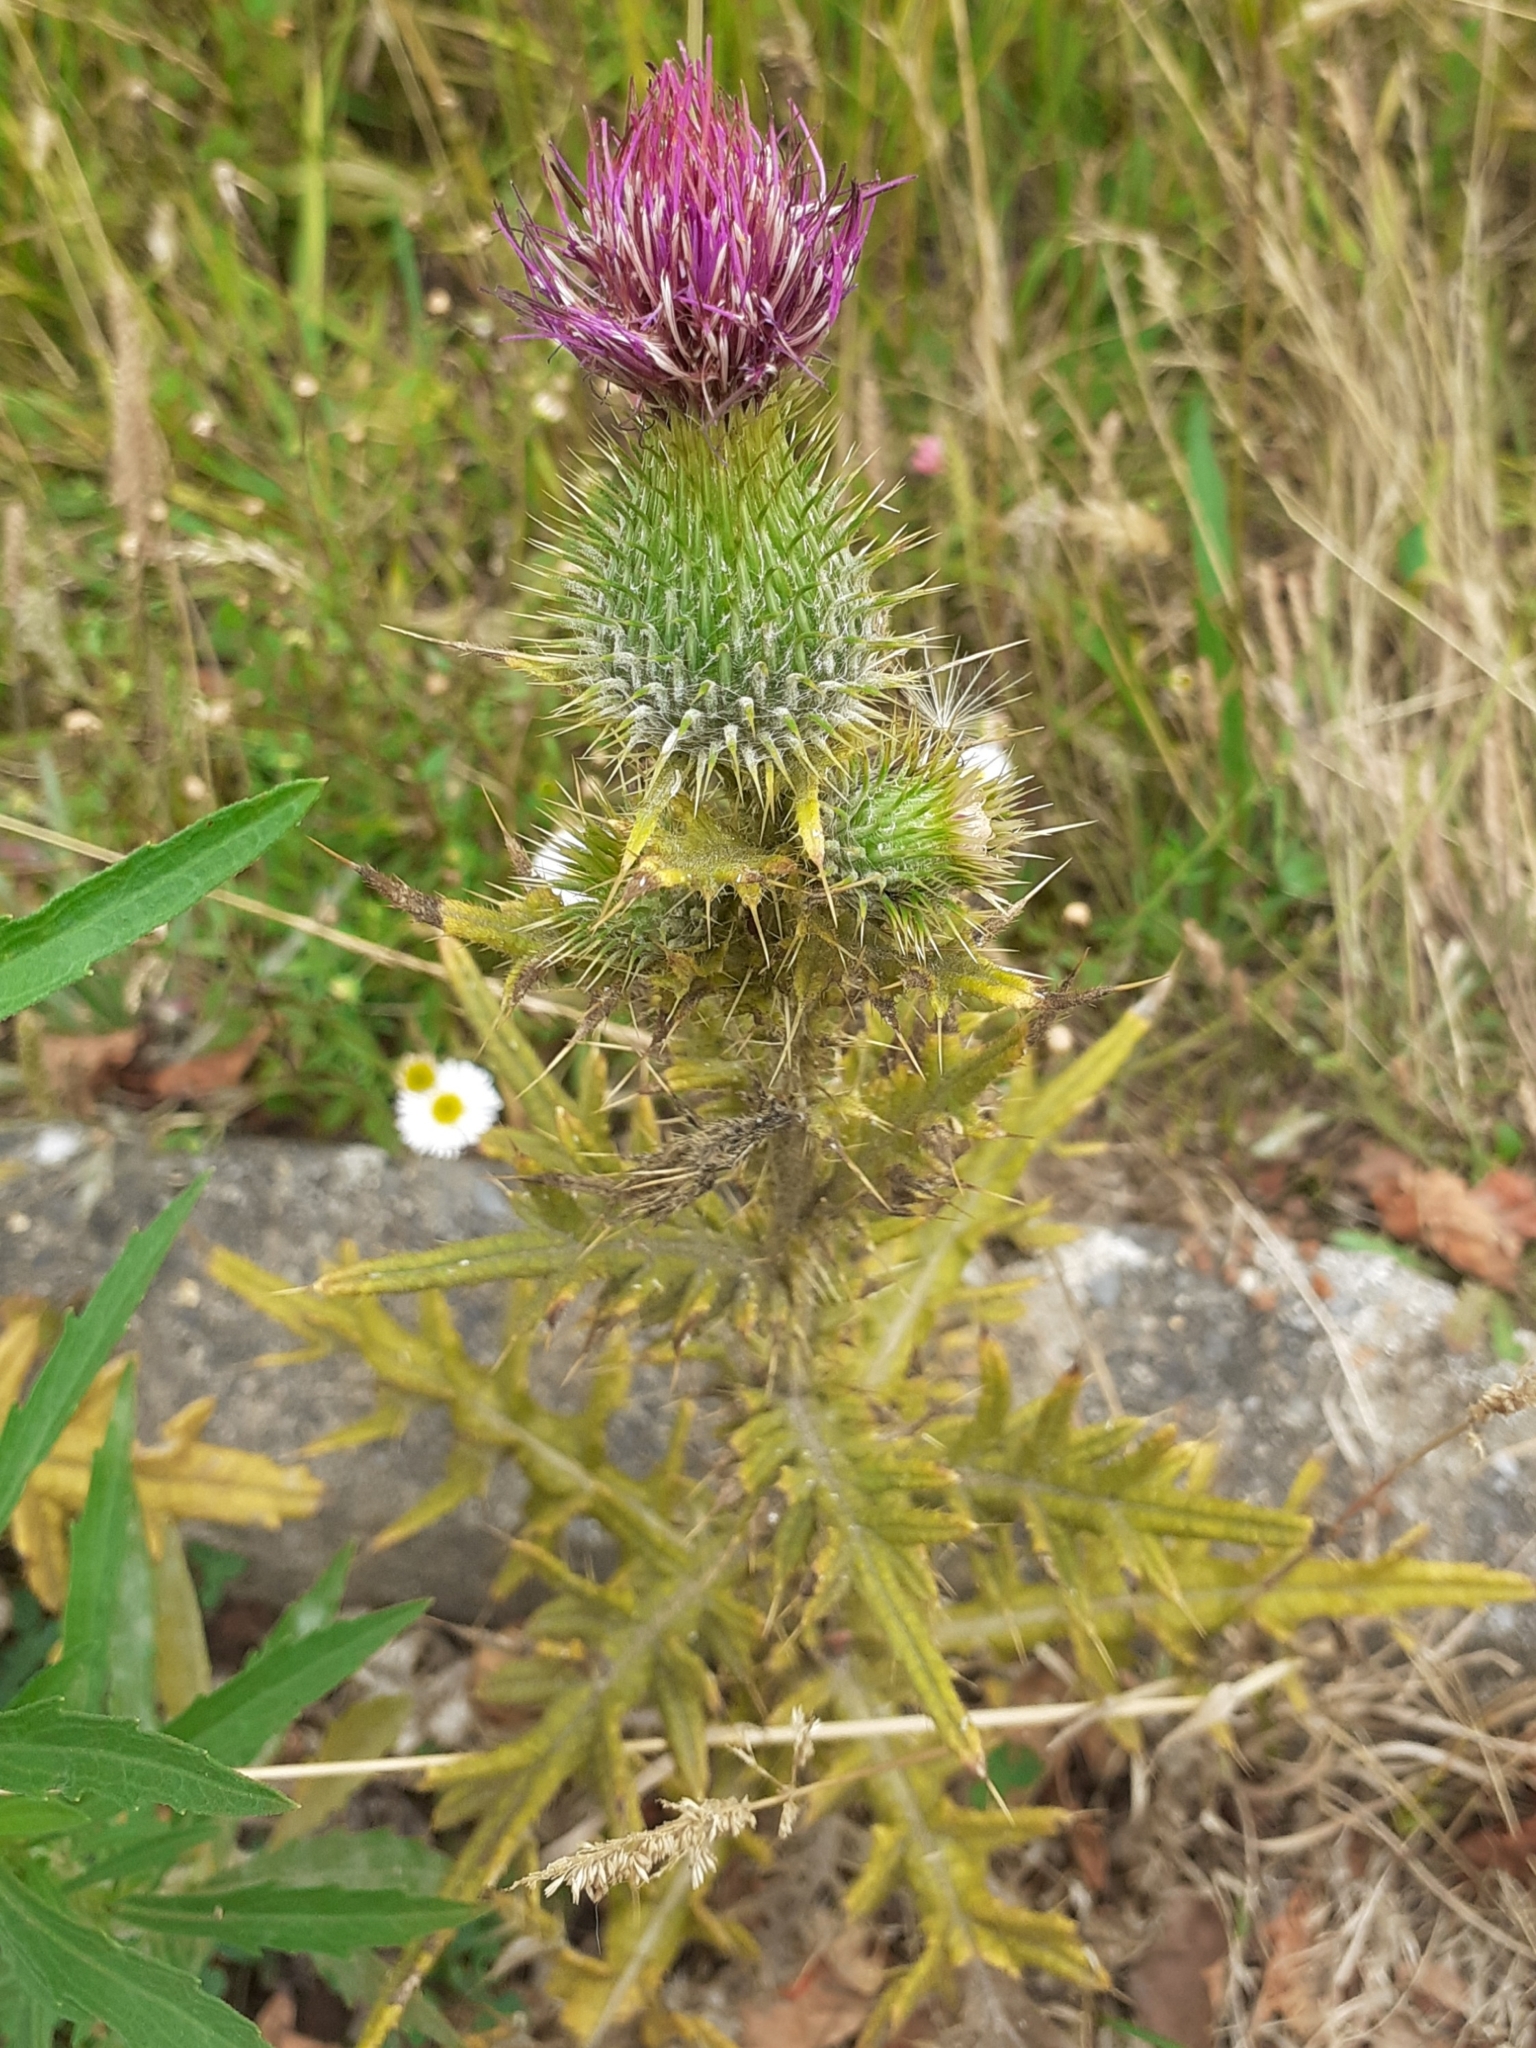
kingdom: Plantae
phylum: Tracheophyta
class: Magnoliopsida
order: Asterales
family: Asteraceae
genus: Cirsium
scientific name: Cirsium vulgare
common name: Bull thistle
